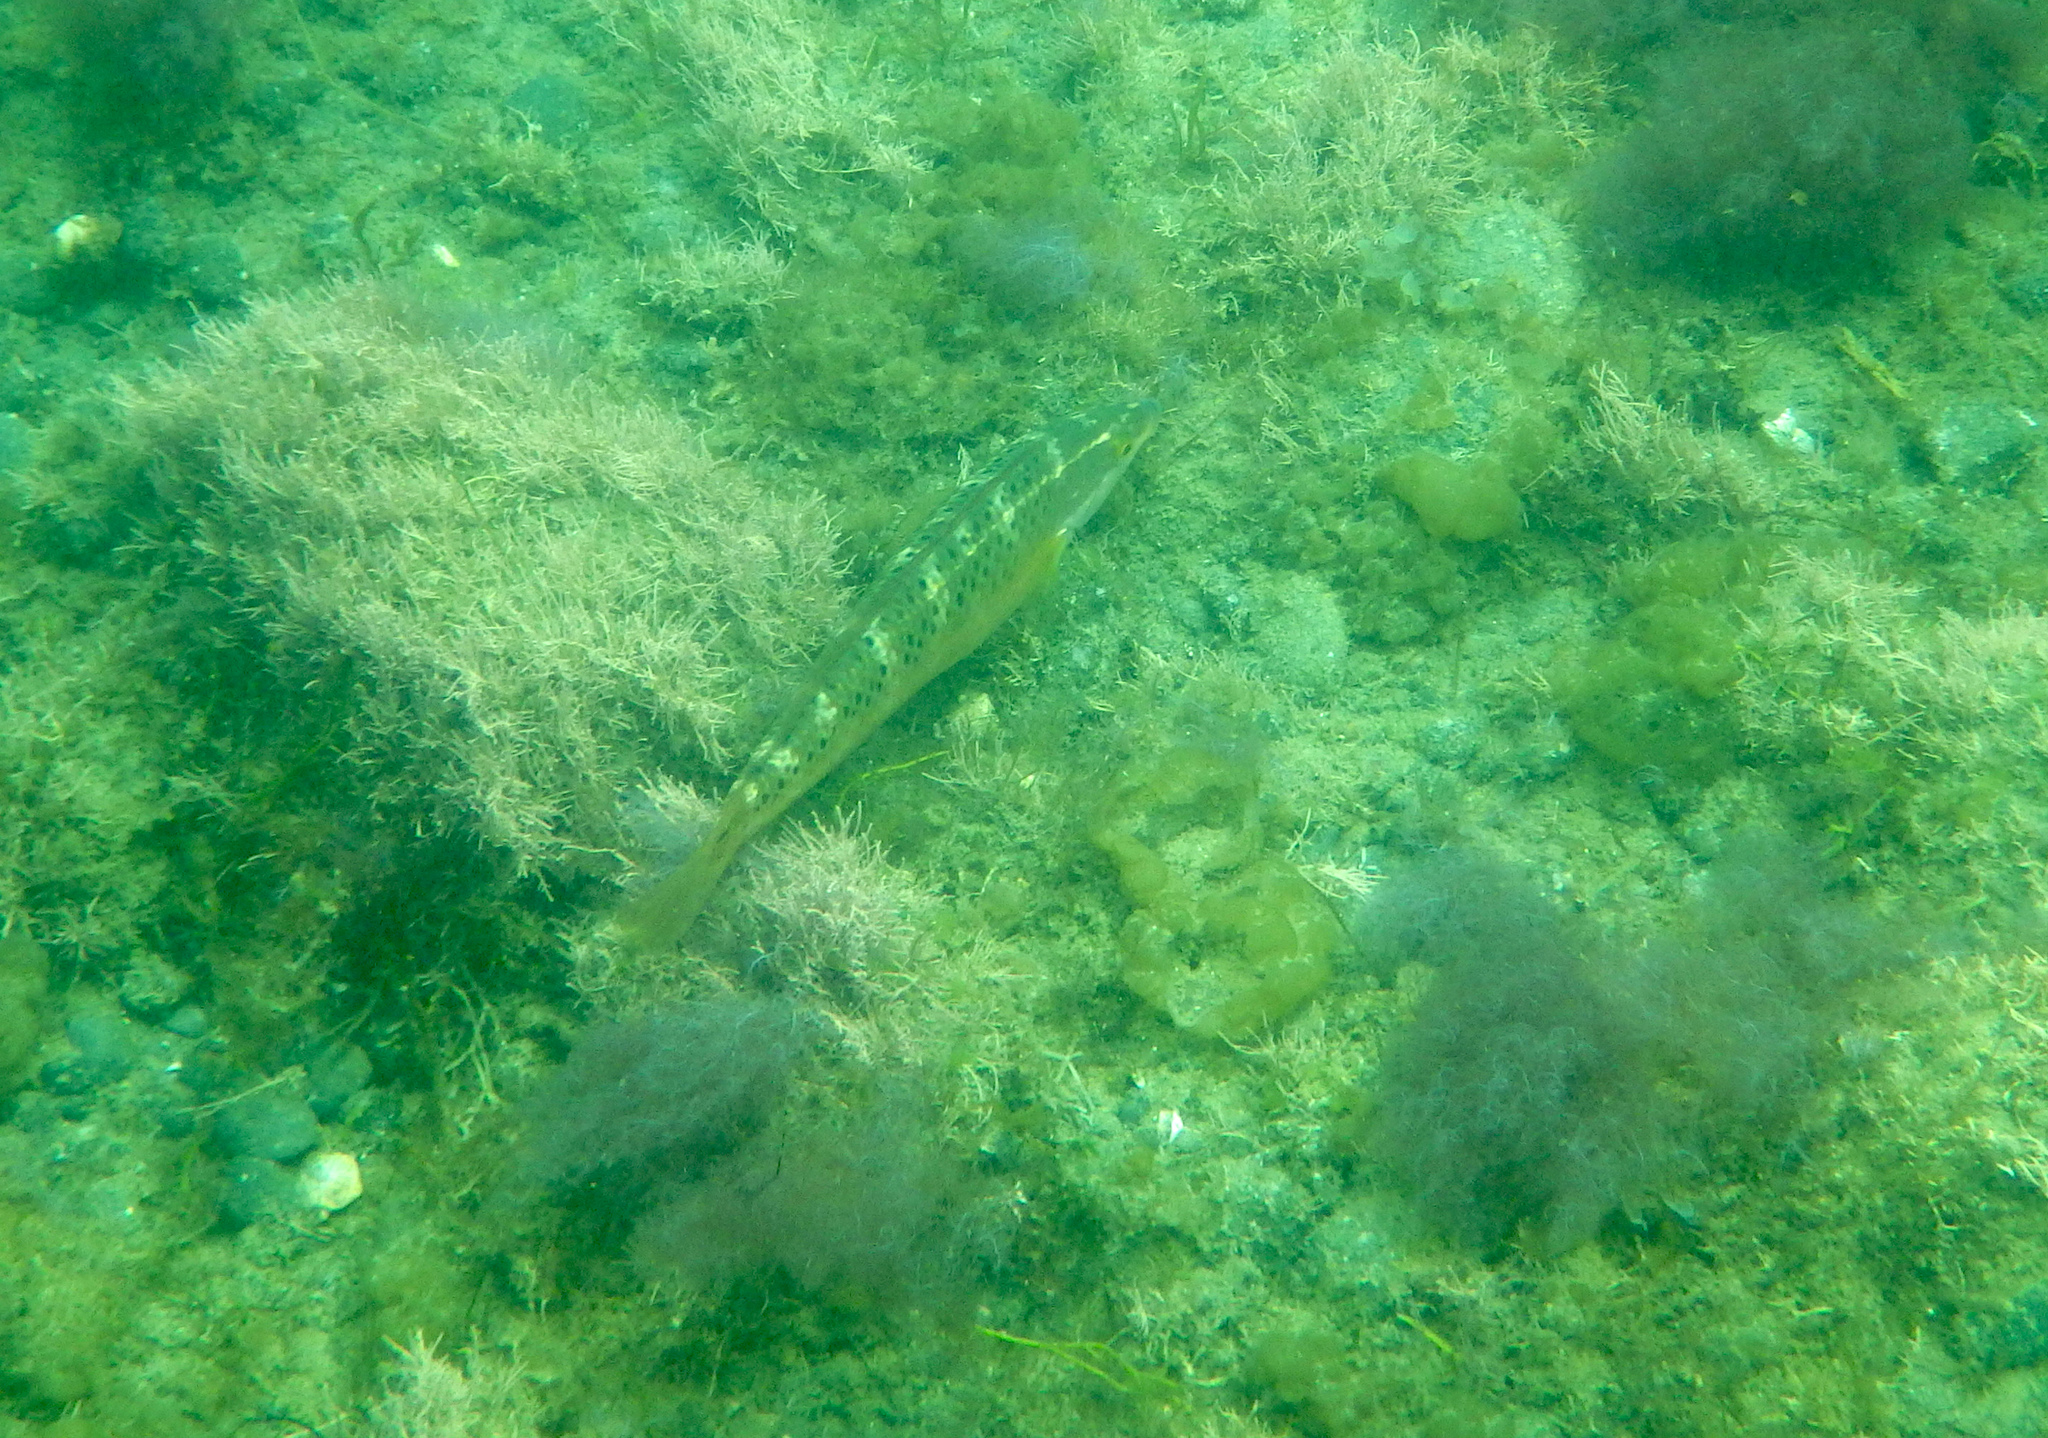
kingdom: Animalia
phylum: Chordata
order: Perciformes
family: Labridae
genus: Halichoeres
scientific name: Halichoeres semicinctus
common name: Rock wrasse
